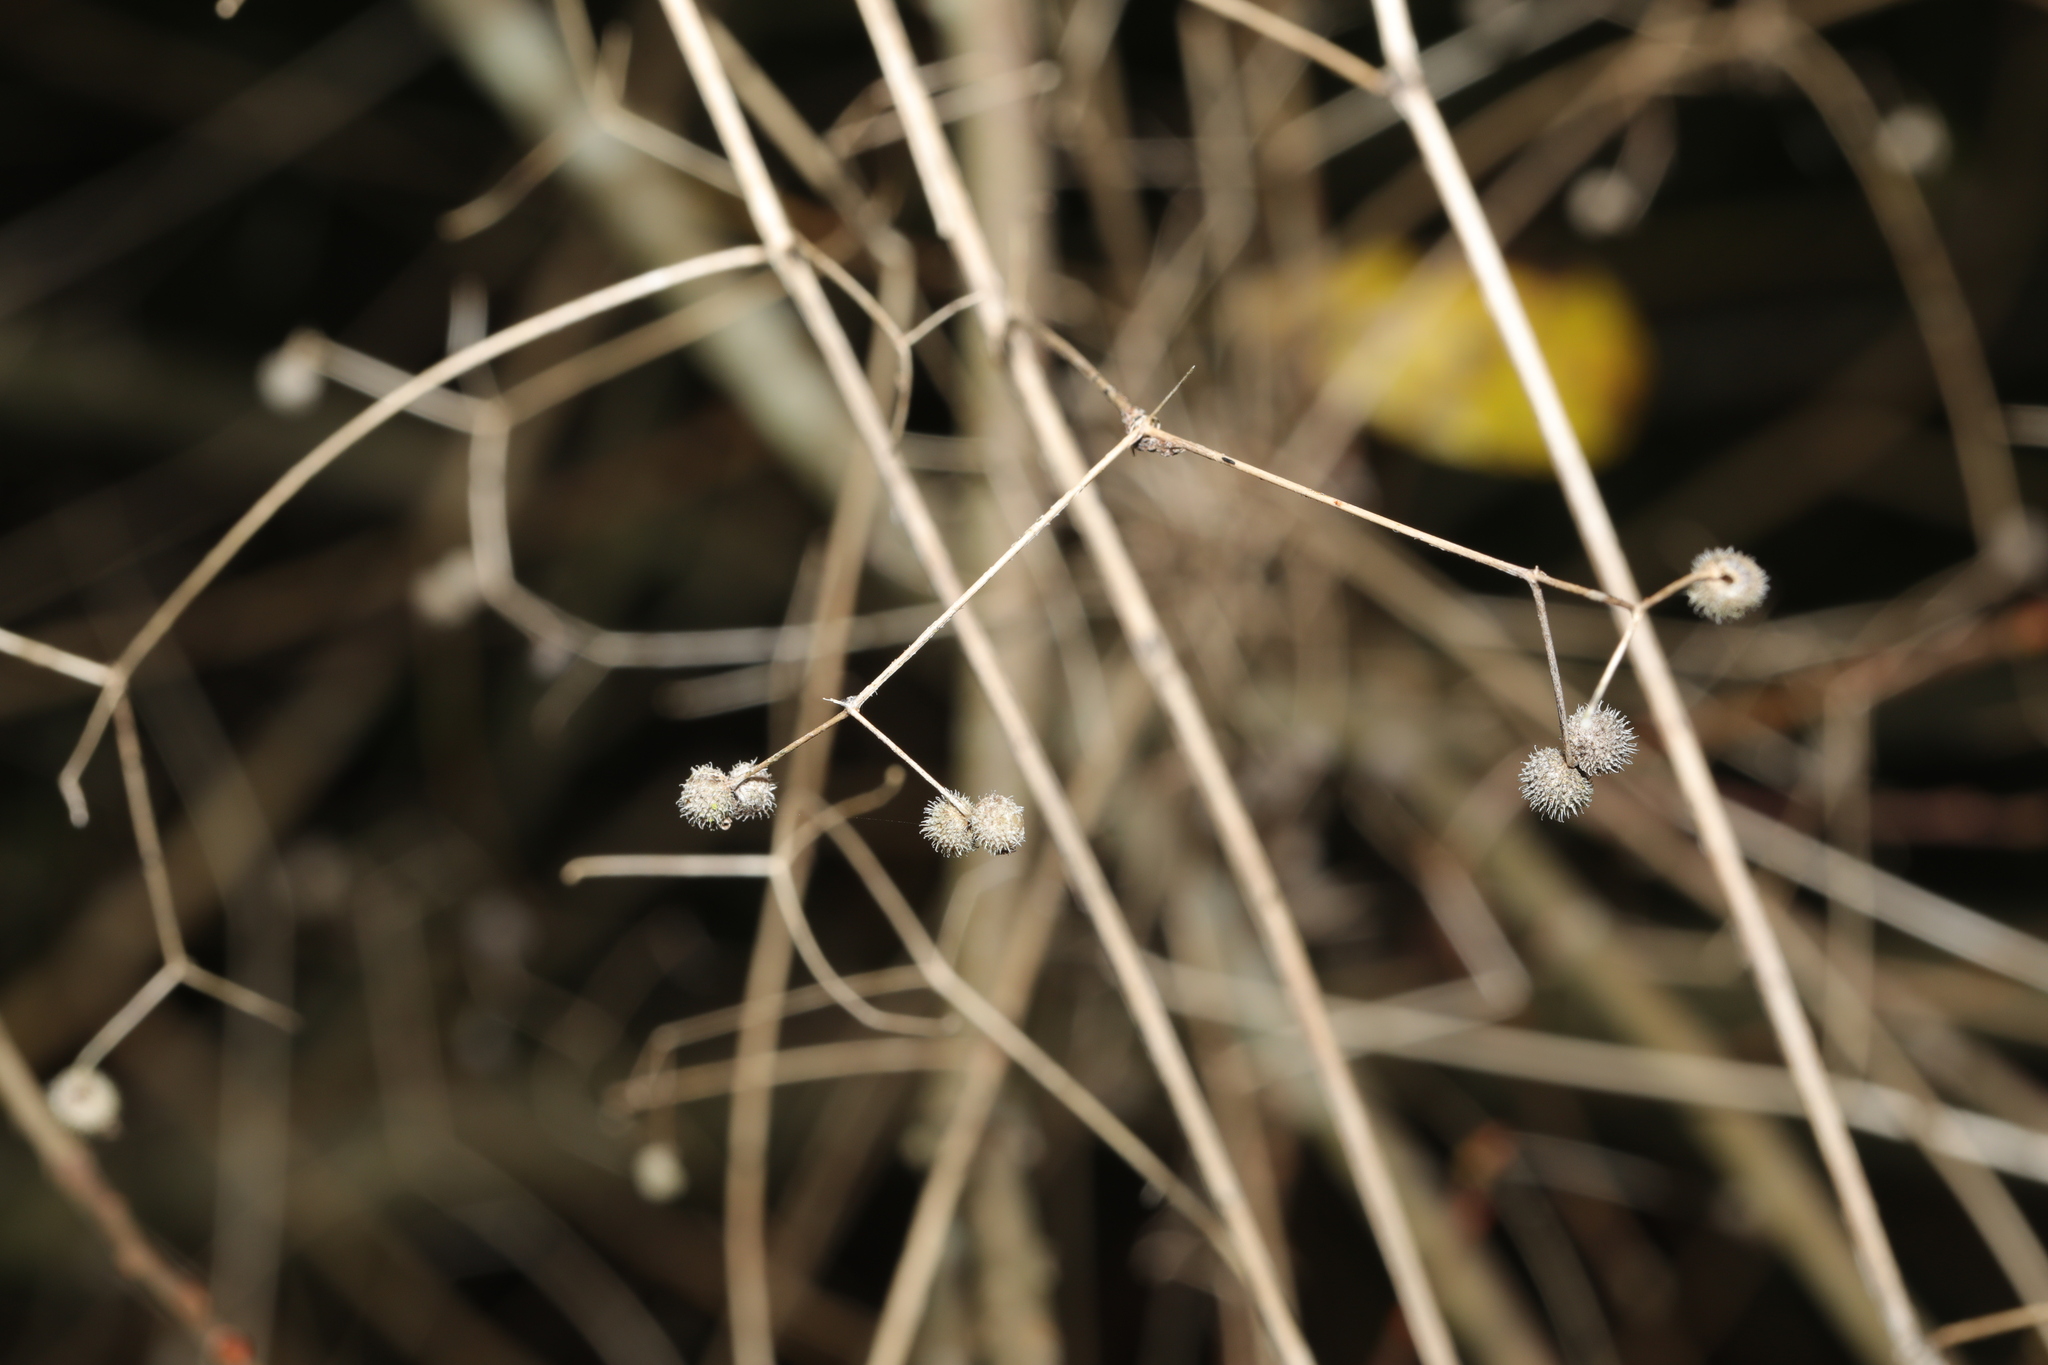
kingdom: Plantae
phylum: Tracheophyta
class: Magnoliopsida
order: Gentianales
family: Rubiaceae
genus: Galium
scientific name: Galium aparine
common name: Cleavers
